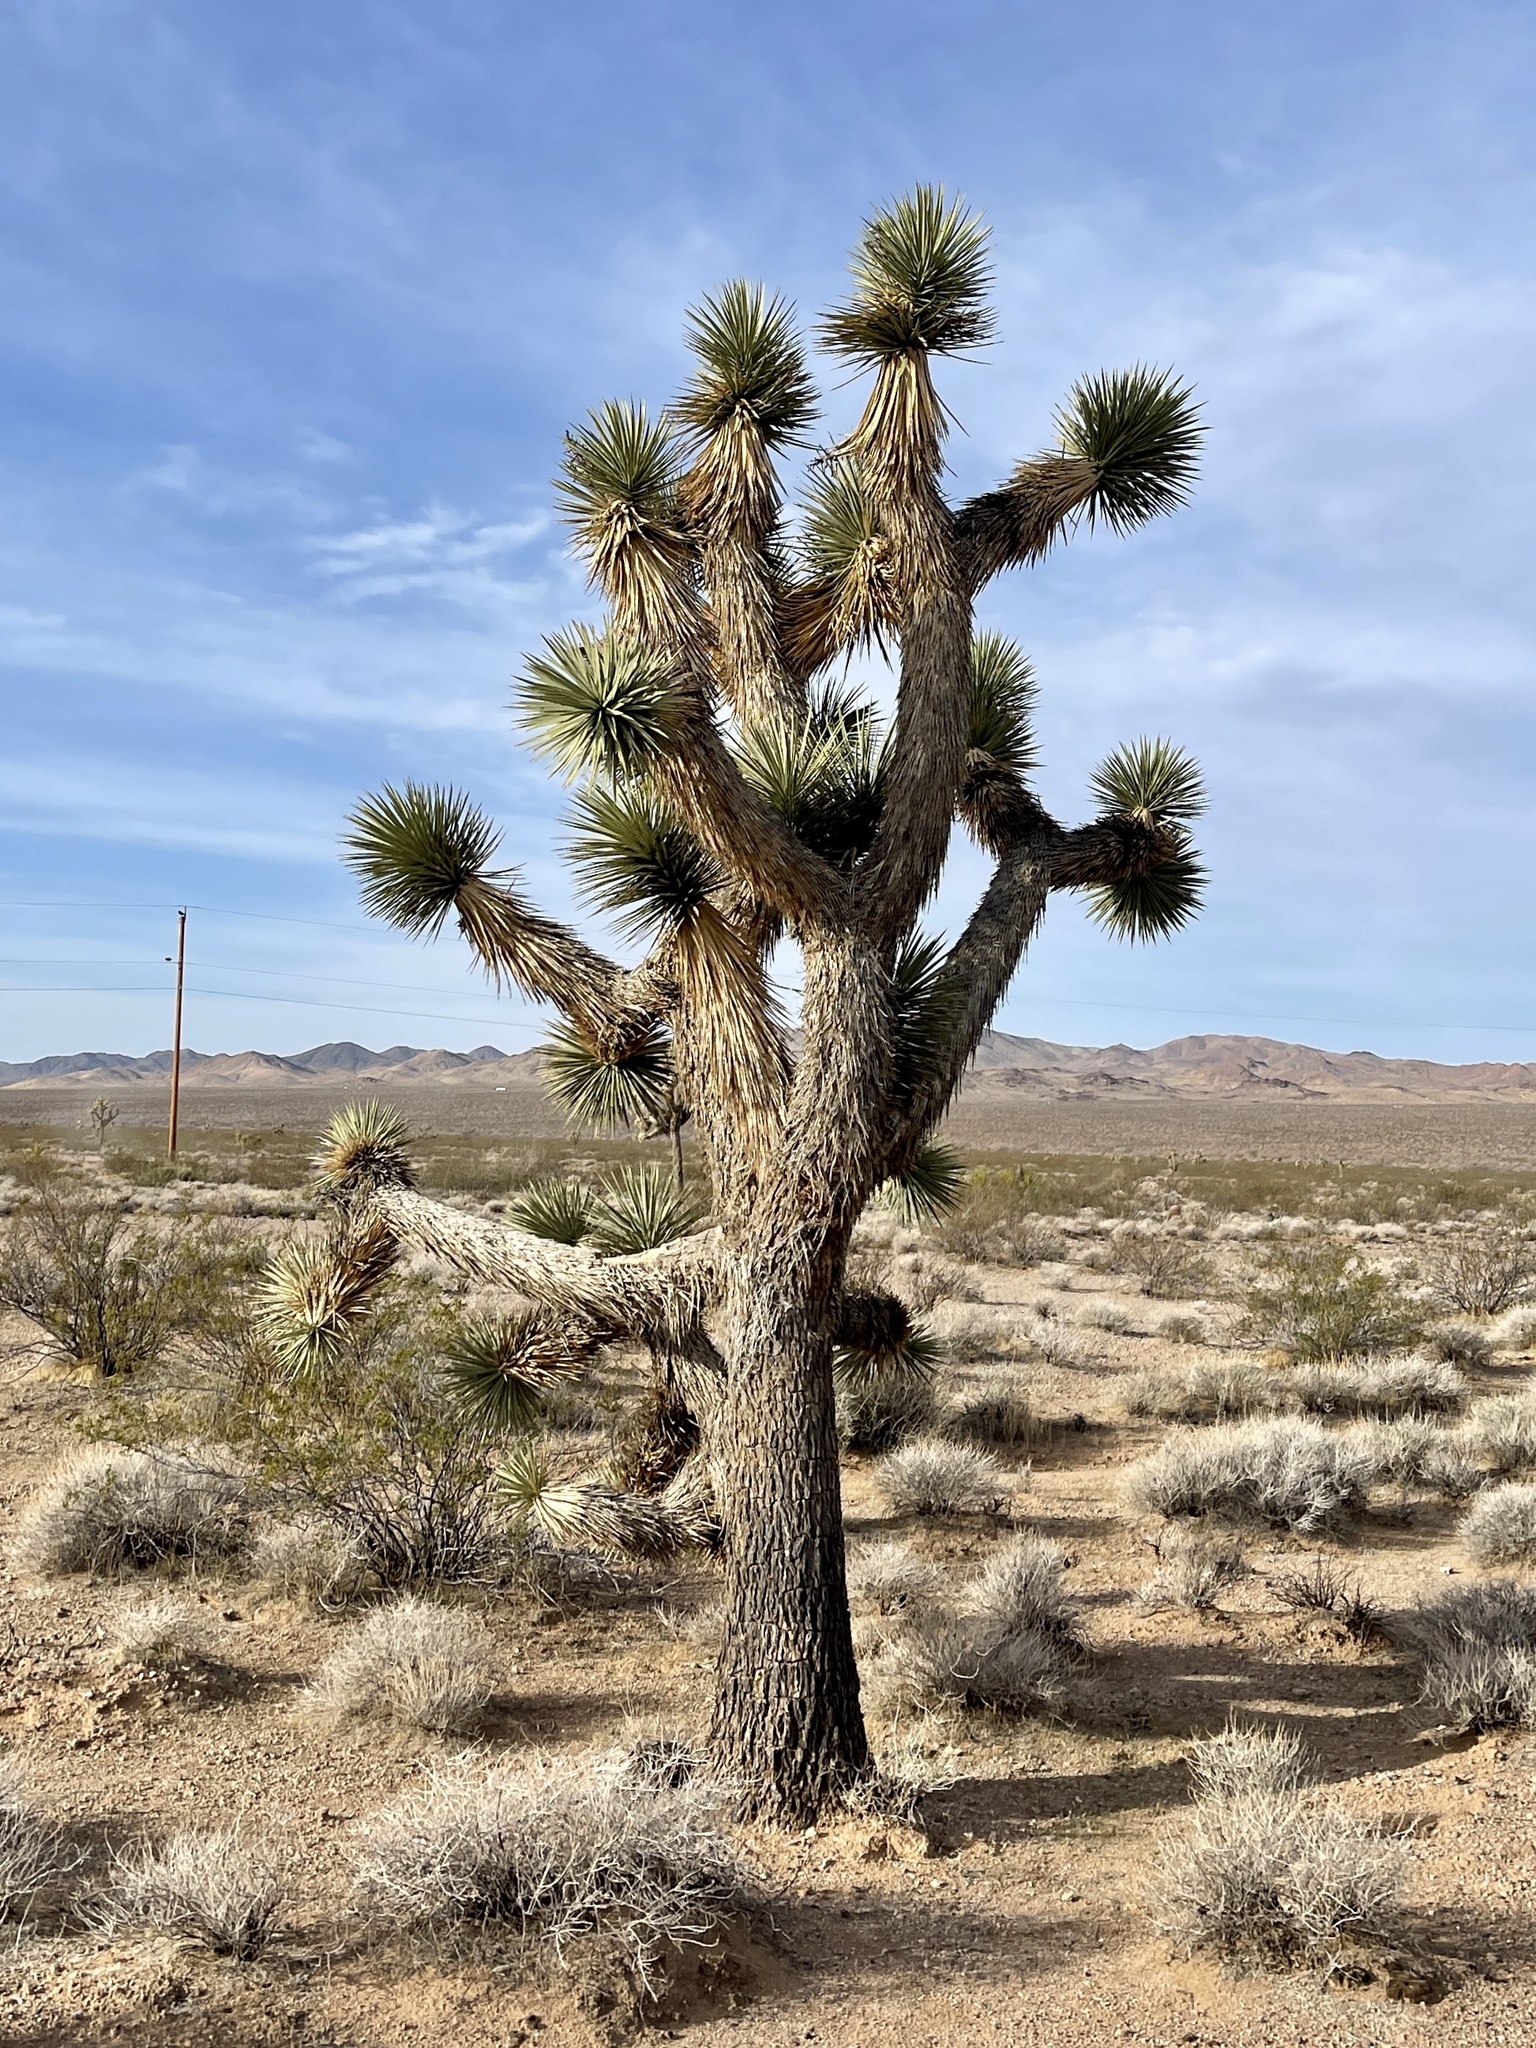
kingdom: Plantae
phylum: Tracheophyta
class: Liliopsida
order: Asparagales
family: Asparagaceae
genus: Yucca
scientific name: Yucca brevifolia
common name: Joshua tree
